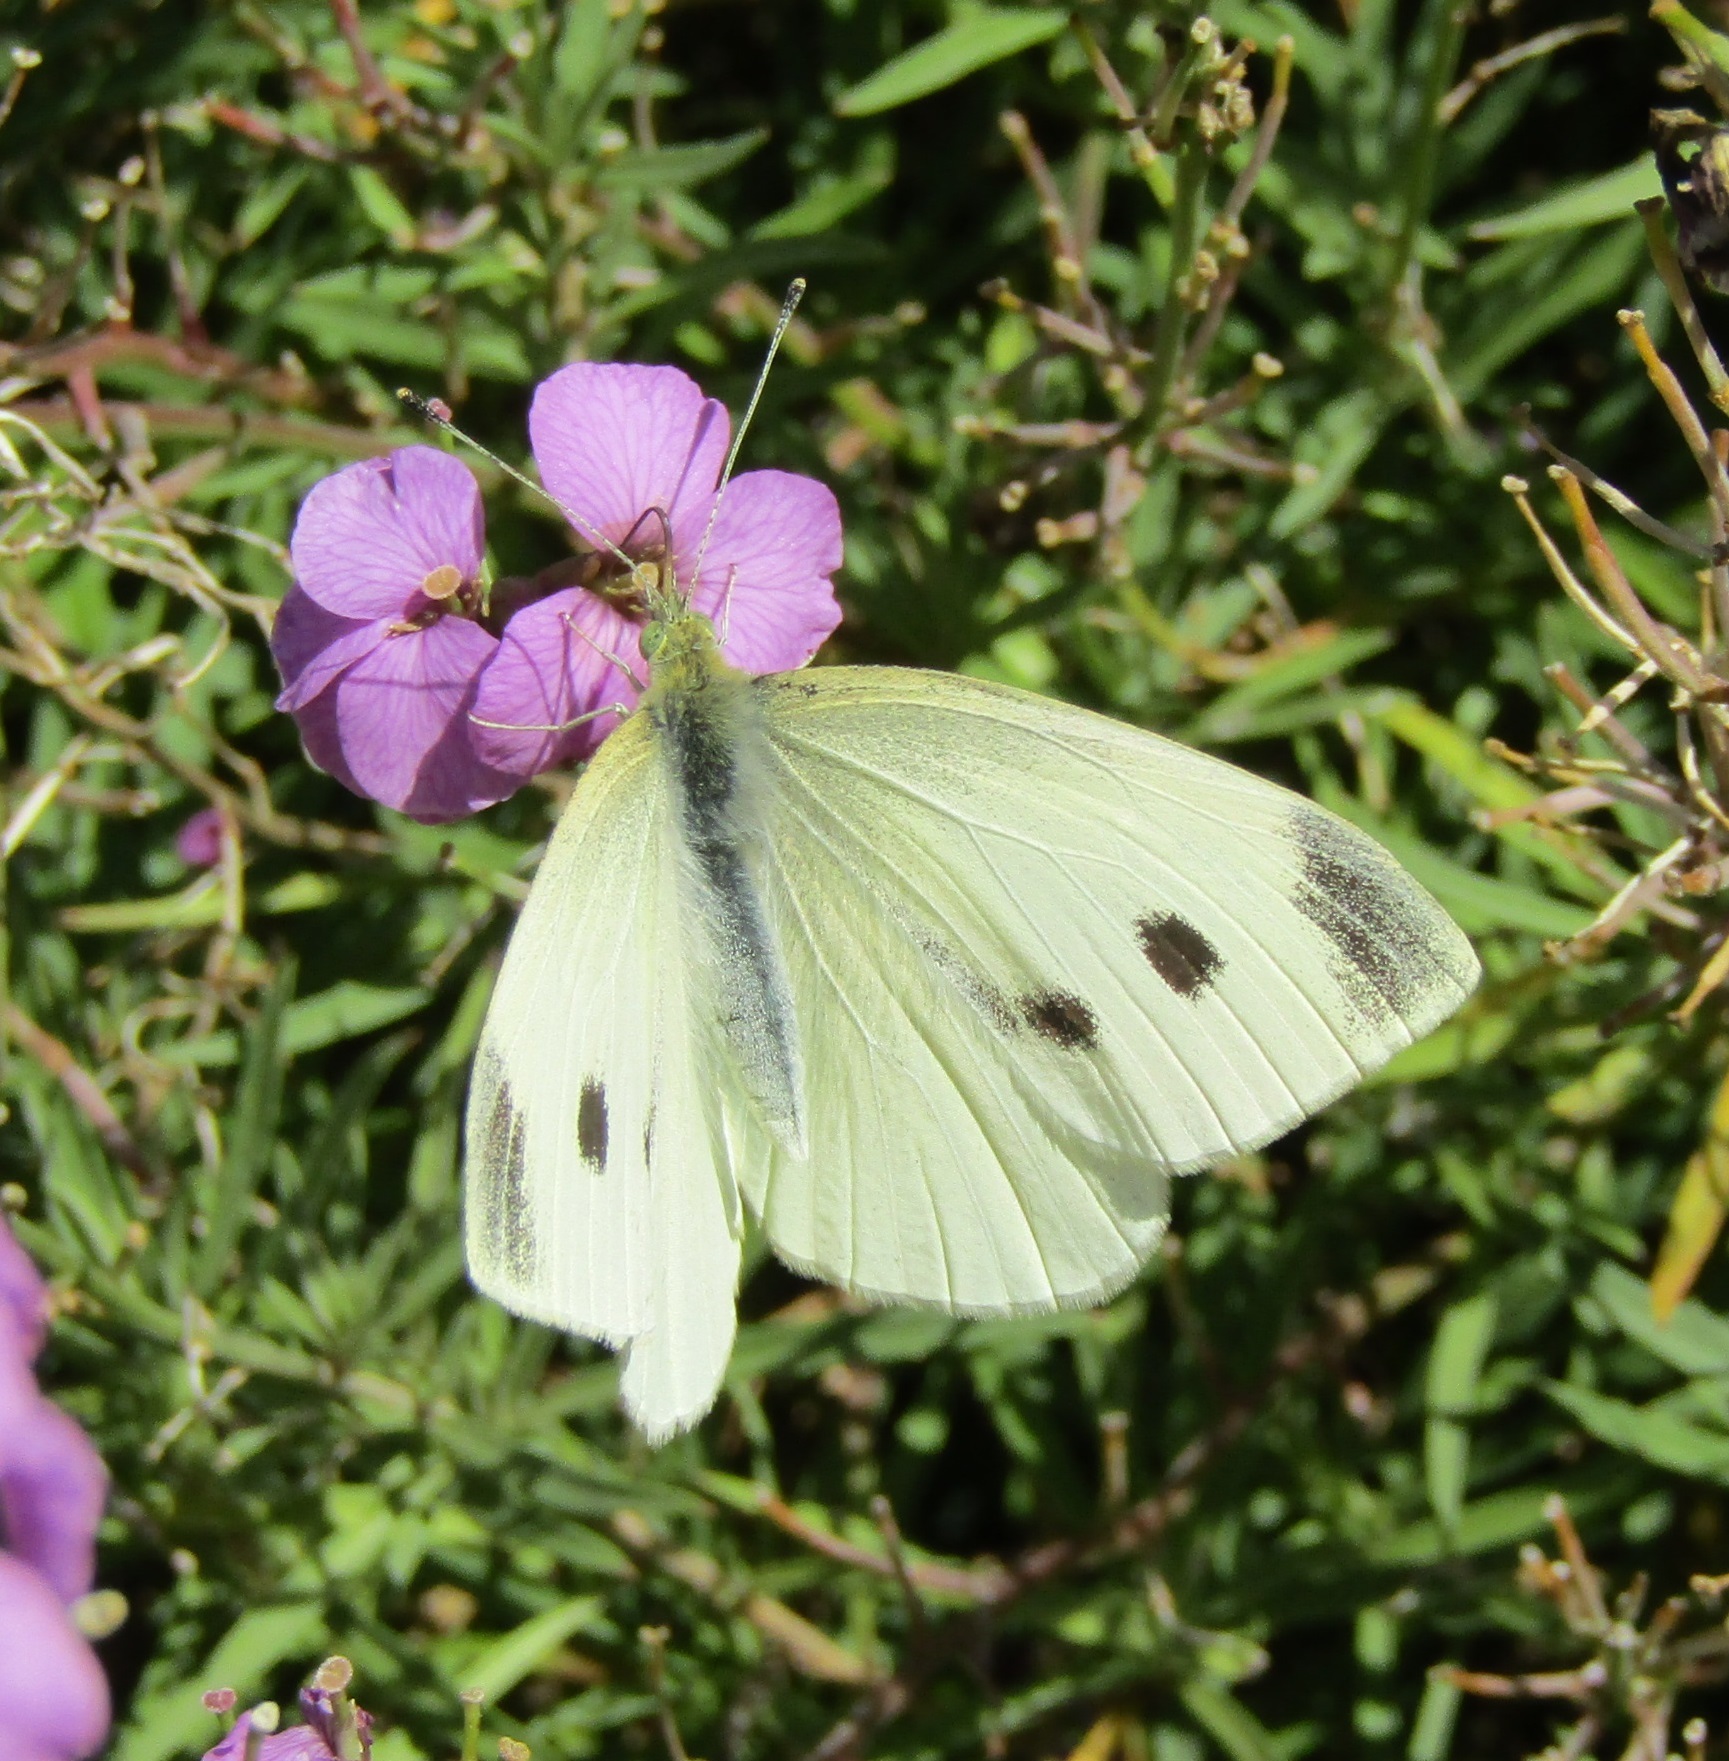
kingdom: Animalia
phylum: Arthropoda
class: Insecta
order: Lepidoptera
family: Pieridae
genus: Pieris
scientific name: Pieris rapae
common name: Small white
